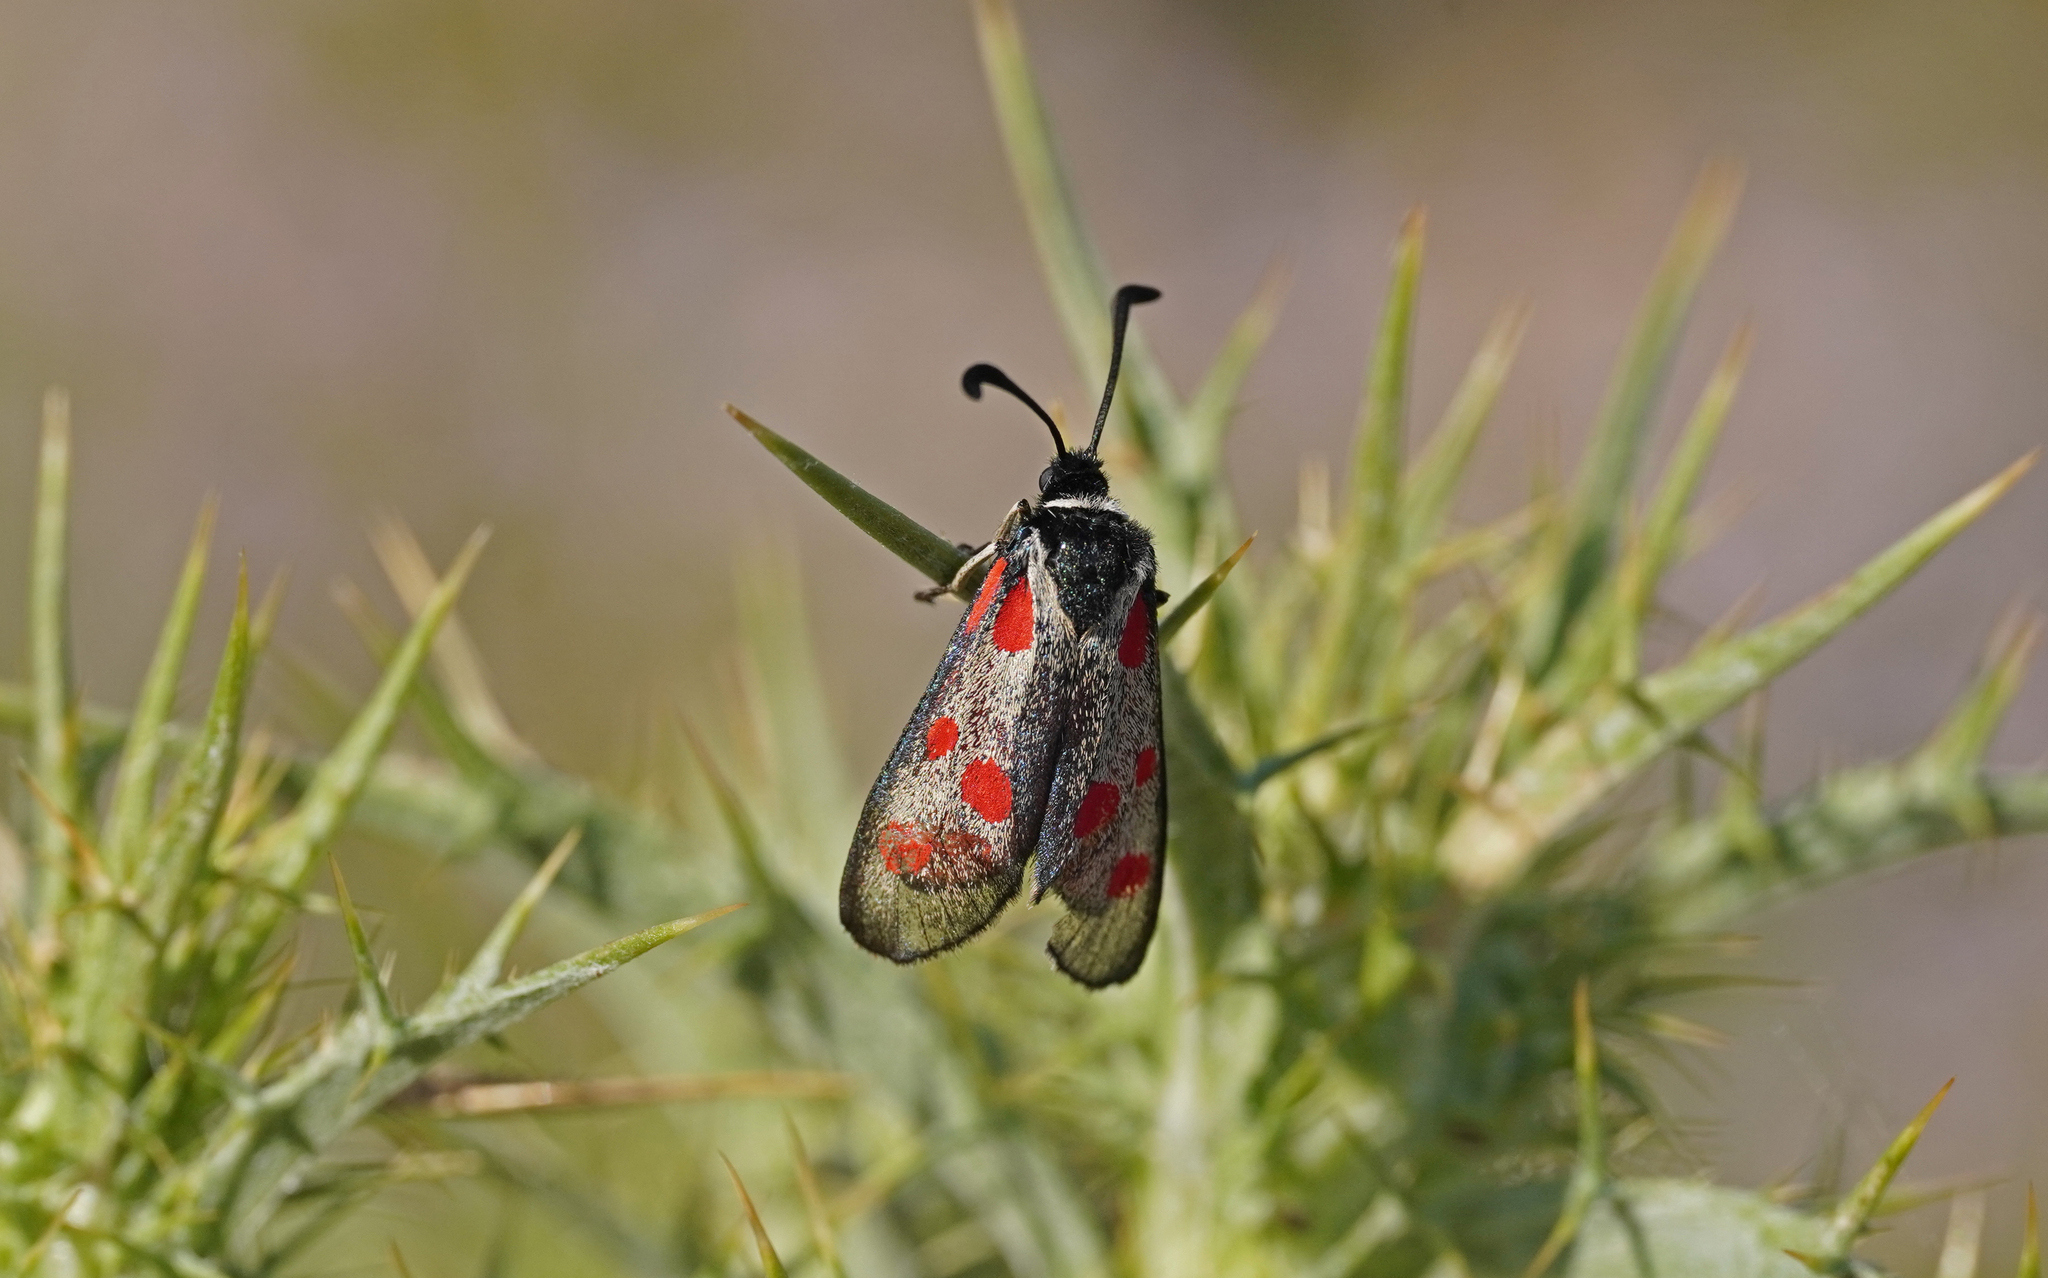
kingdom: Animalia
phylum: Arthropoda
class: Insecta
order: Lepidoptera
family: Zygaenidae
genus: Zygaena
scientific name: Zygaena corsica
